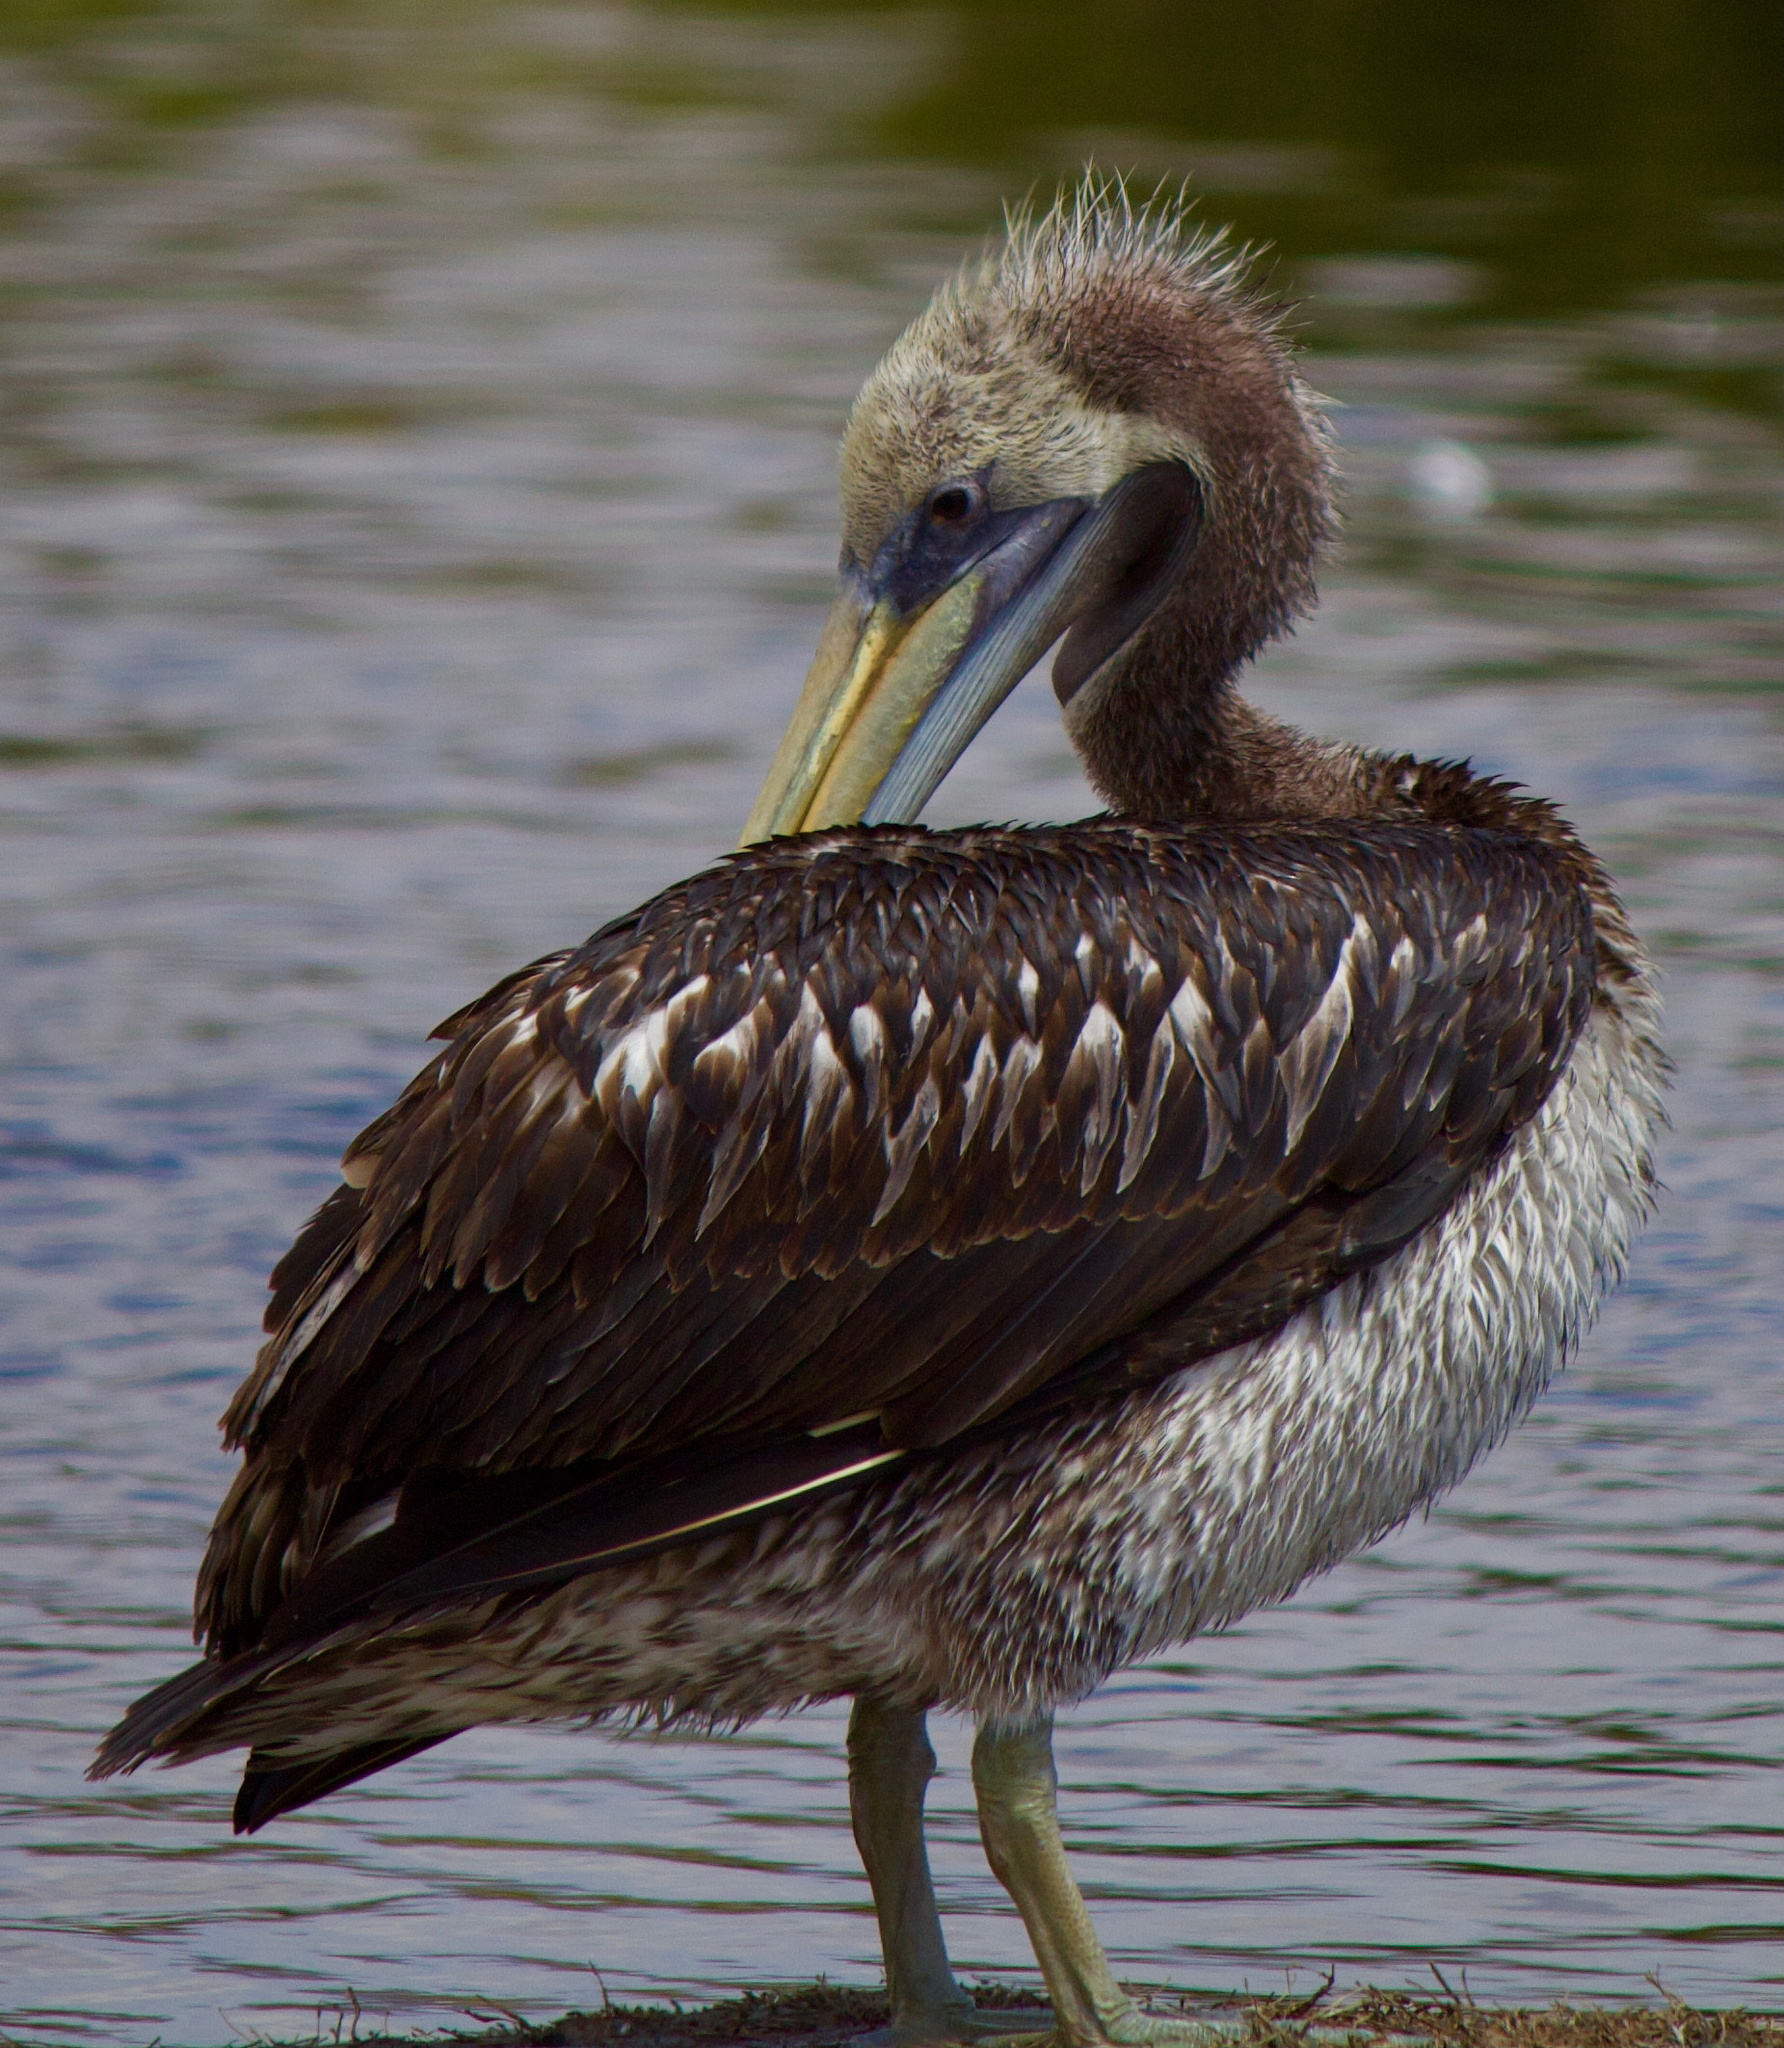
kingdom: Animalia
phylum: Chordata
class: Aves
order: Pelecaniformes
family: Pelecanidae
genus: Pelecanus
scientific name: Pelecanus thagus
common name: Peruvian pelican
